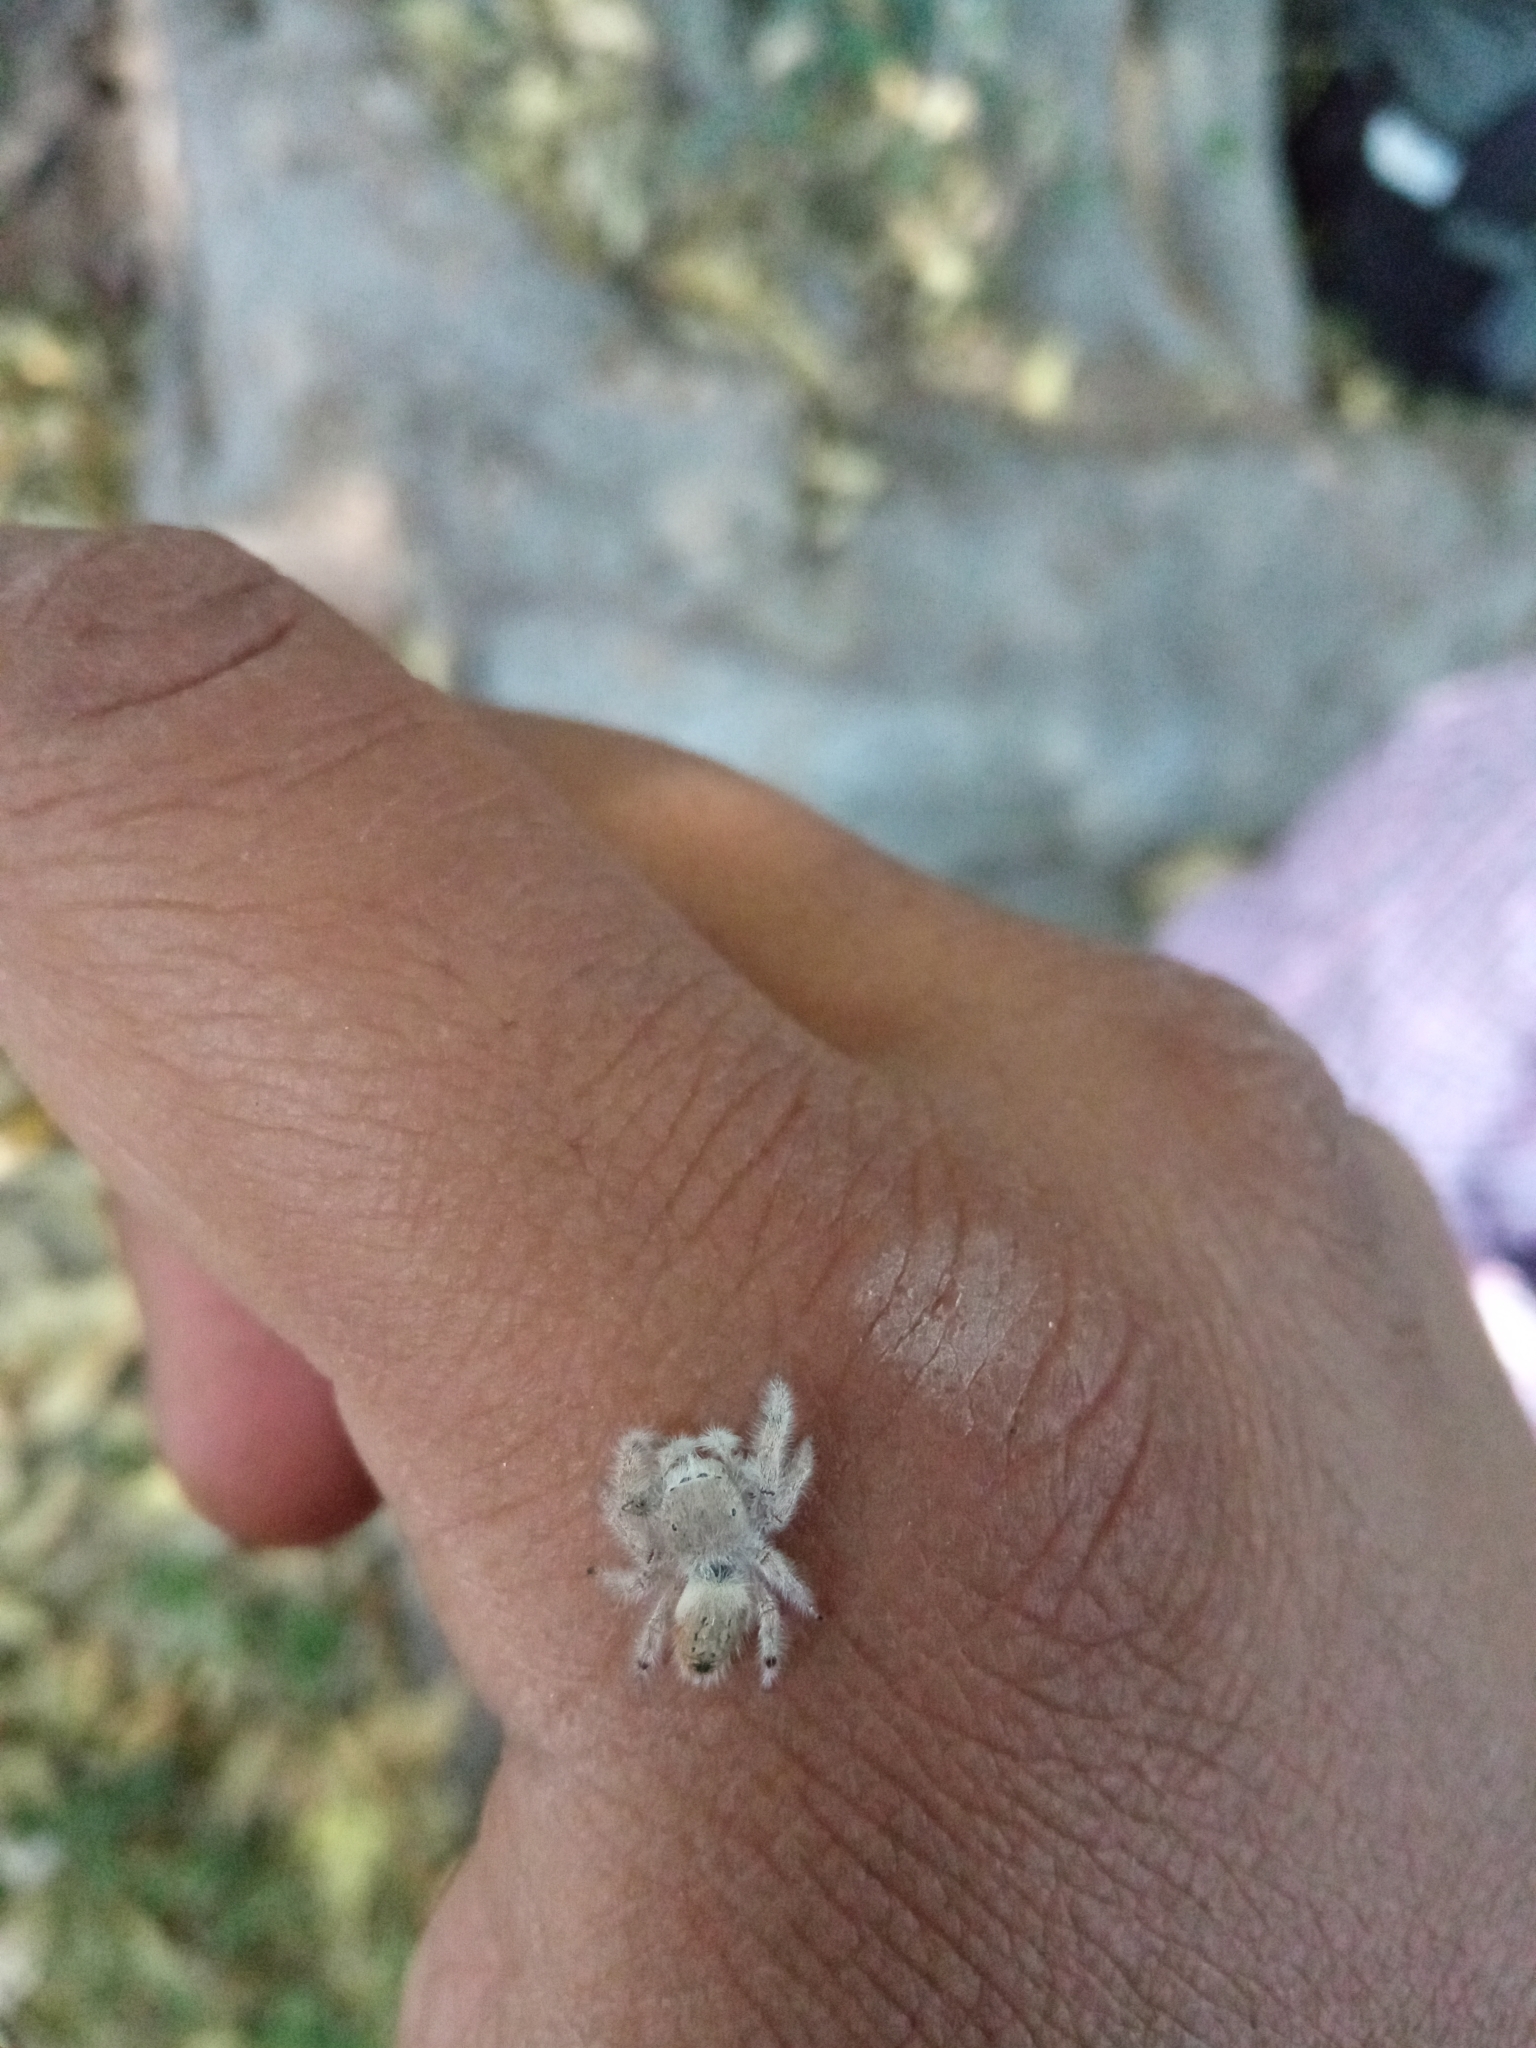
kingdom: Animalia
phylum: Arthropoda
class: Arachnida
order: Araneae
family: Salticidae
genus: Paraphidippus
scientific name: Paraphidippus fartilis
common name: Jumping spiders
